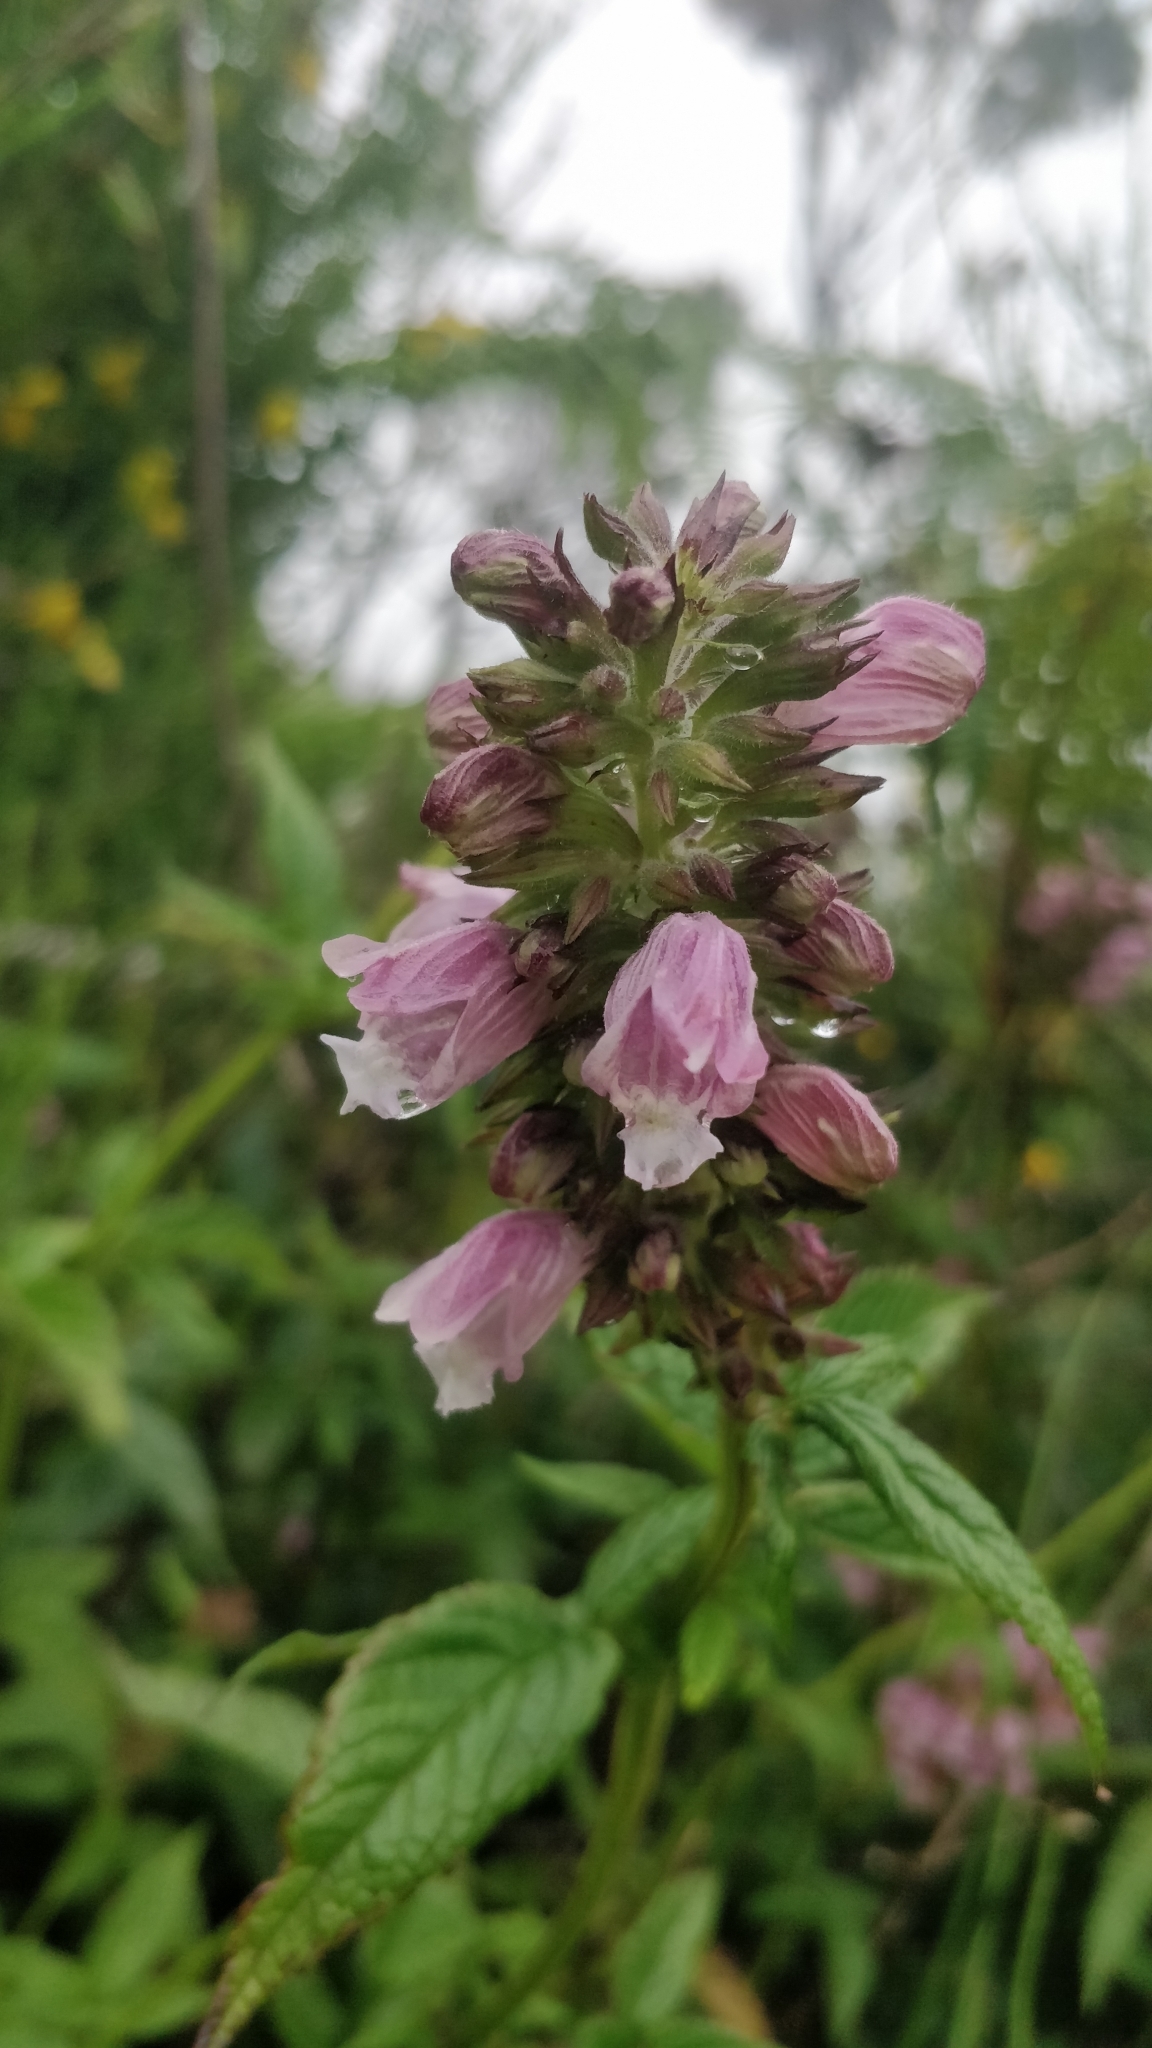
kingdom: Plantae
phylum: Tracheophyta
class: Magnoliopsida
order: Lamiales
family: Lamiaceae
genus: Cedronella
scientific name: Cedronella canariensis
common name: Canary islands balm
